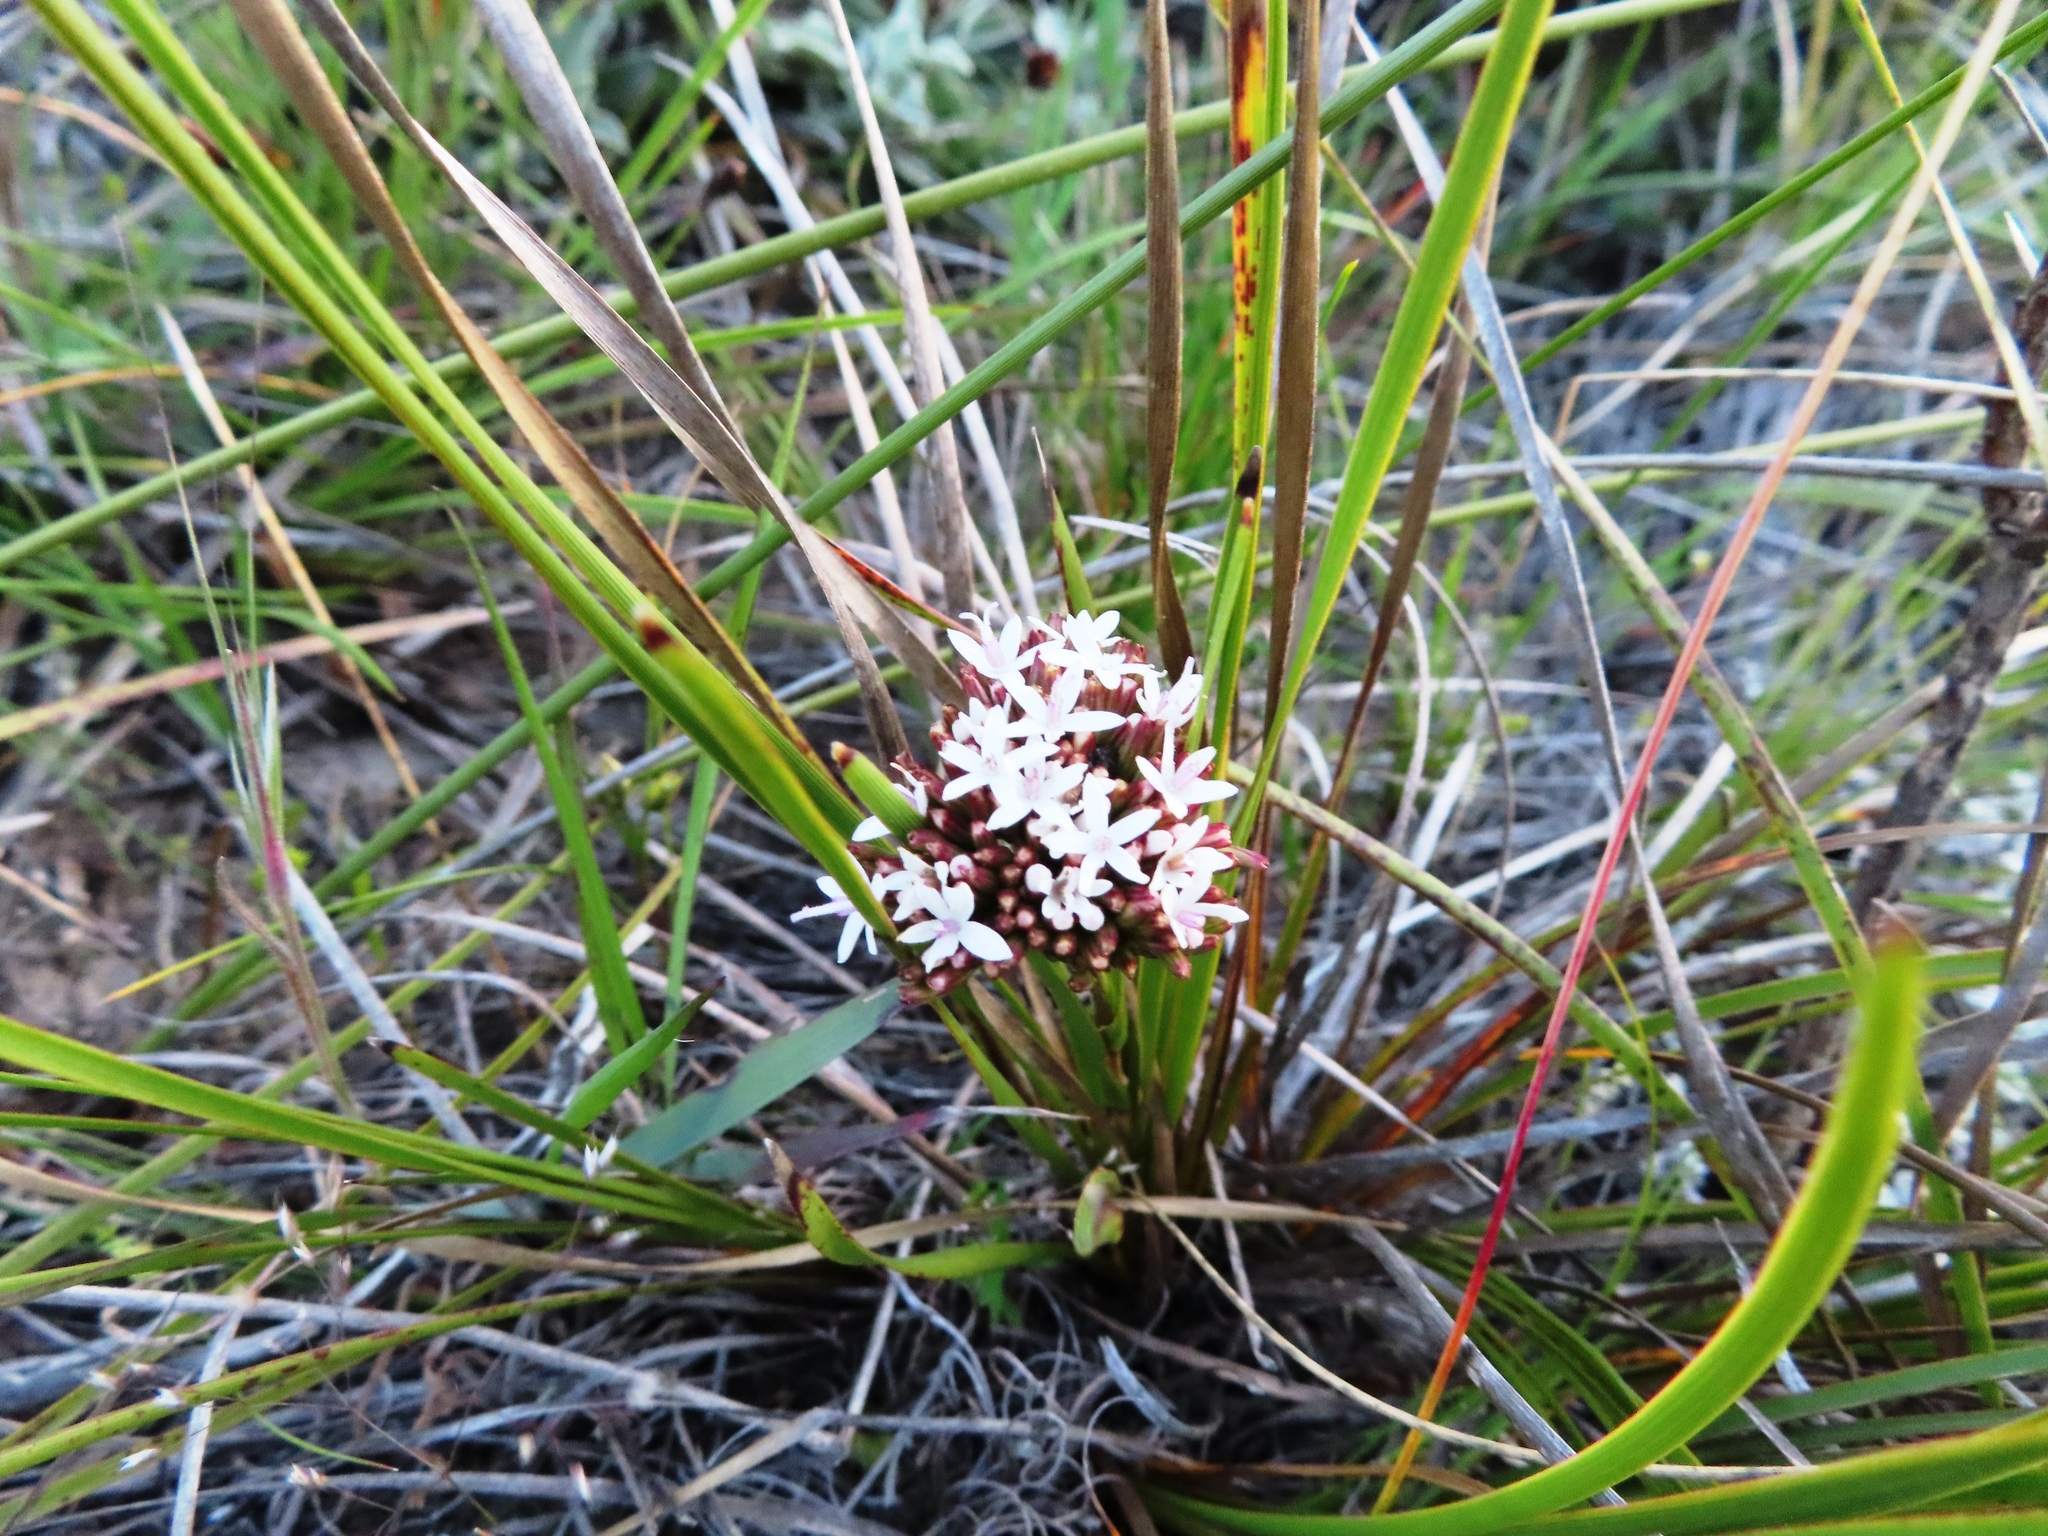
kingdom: Plantae
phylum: Tracheophyta
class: Magnoliopsida
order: Asterales
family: Asteraceae
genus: Corymbium
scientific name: Corymbium africanum
